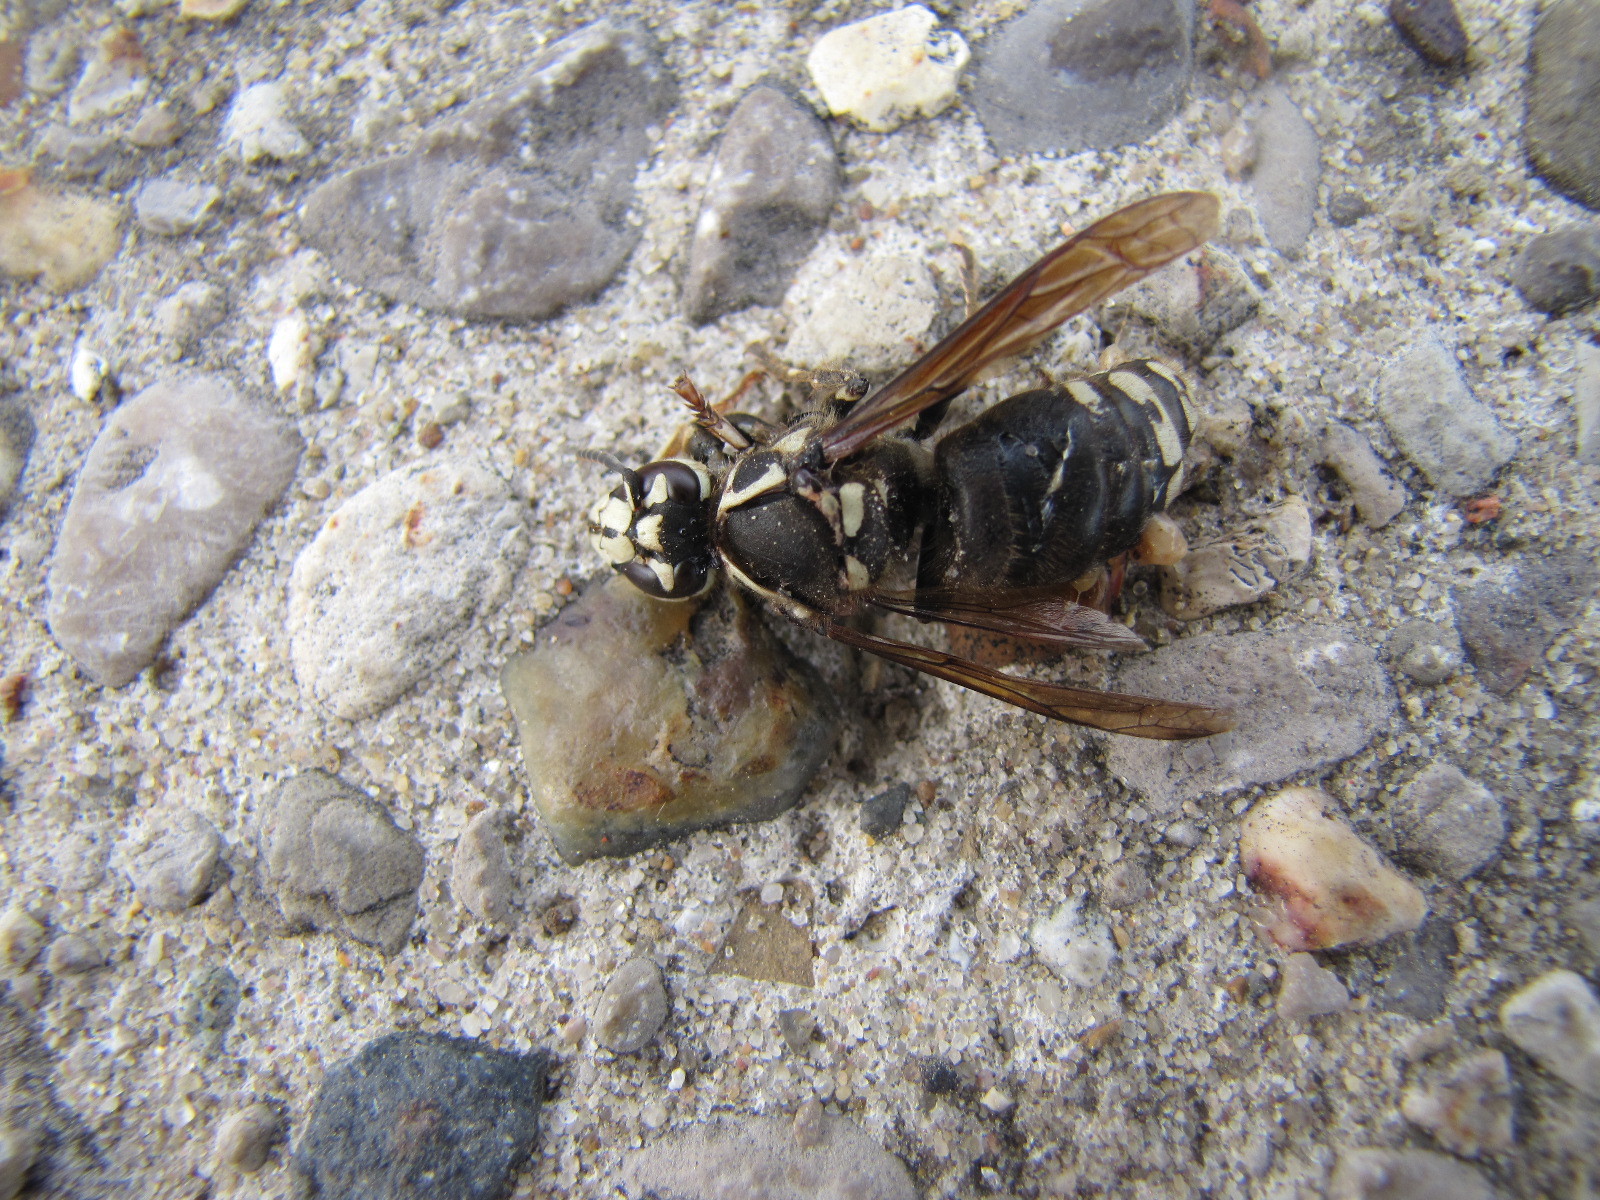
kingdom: Animalia
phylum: Arthropoda
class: Insecta
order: Hymenoptera
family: Vespidae
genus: Dolichovespula
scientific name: Dolichovespula maculata
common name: Bald-faced hornet
